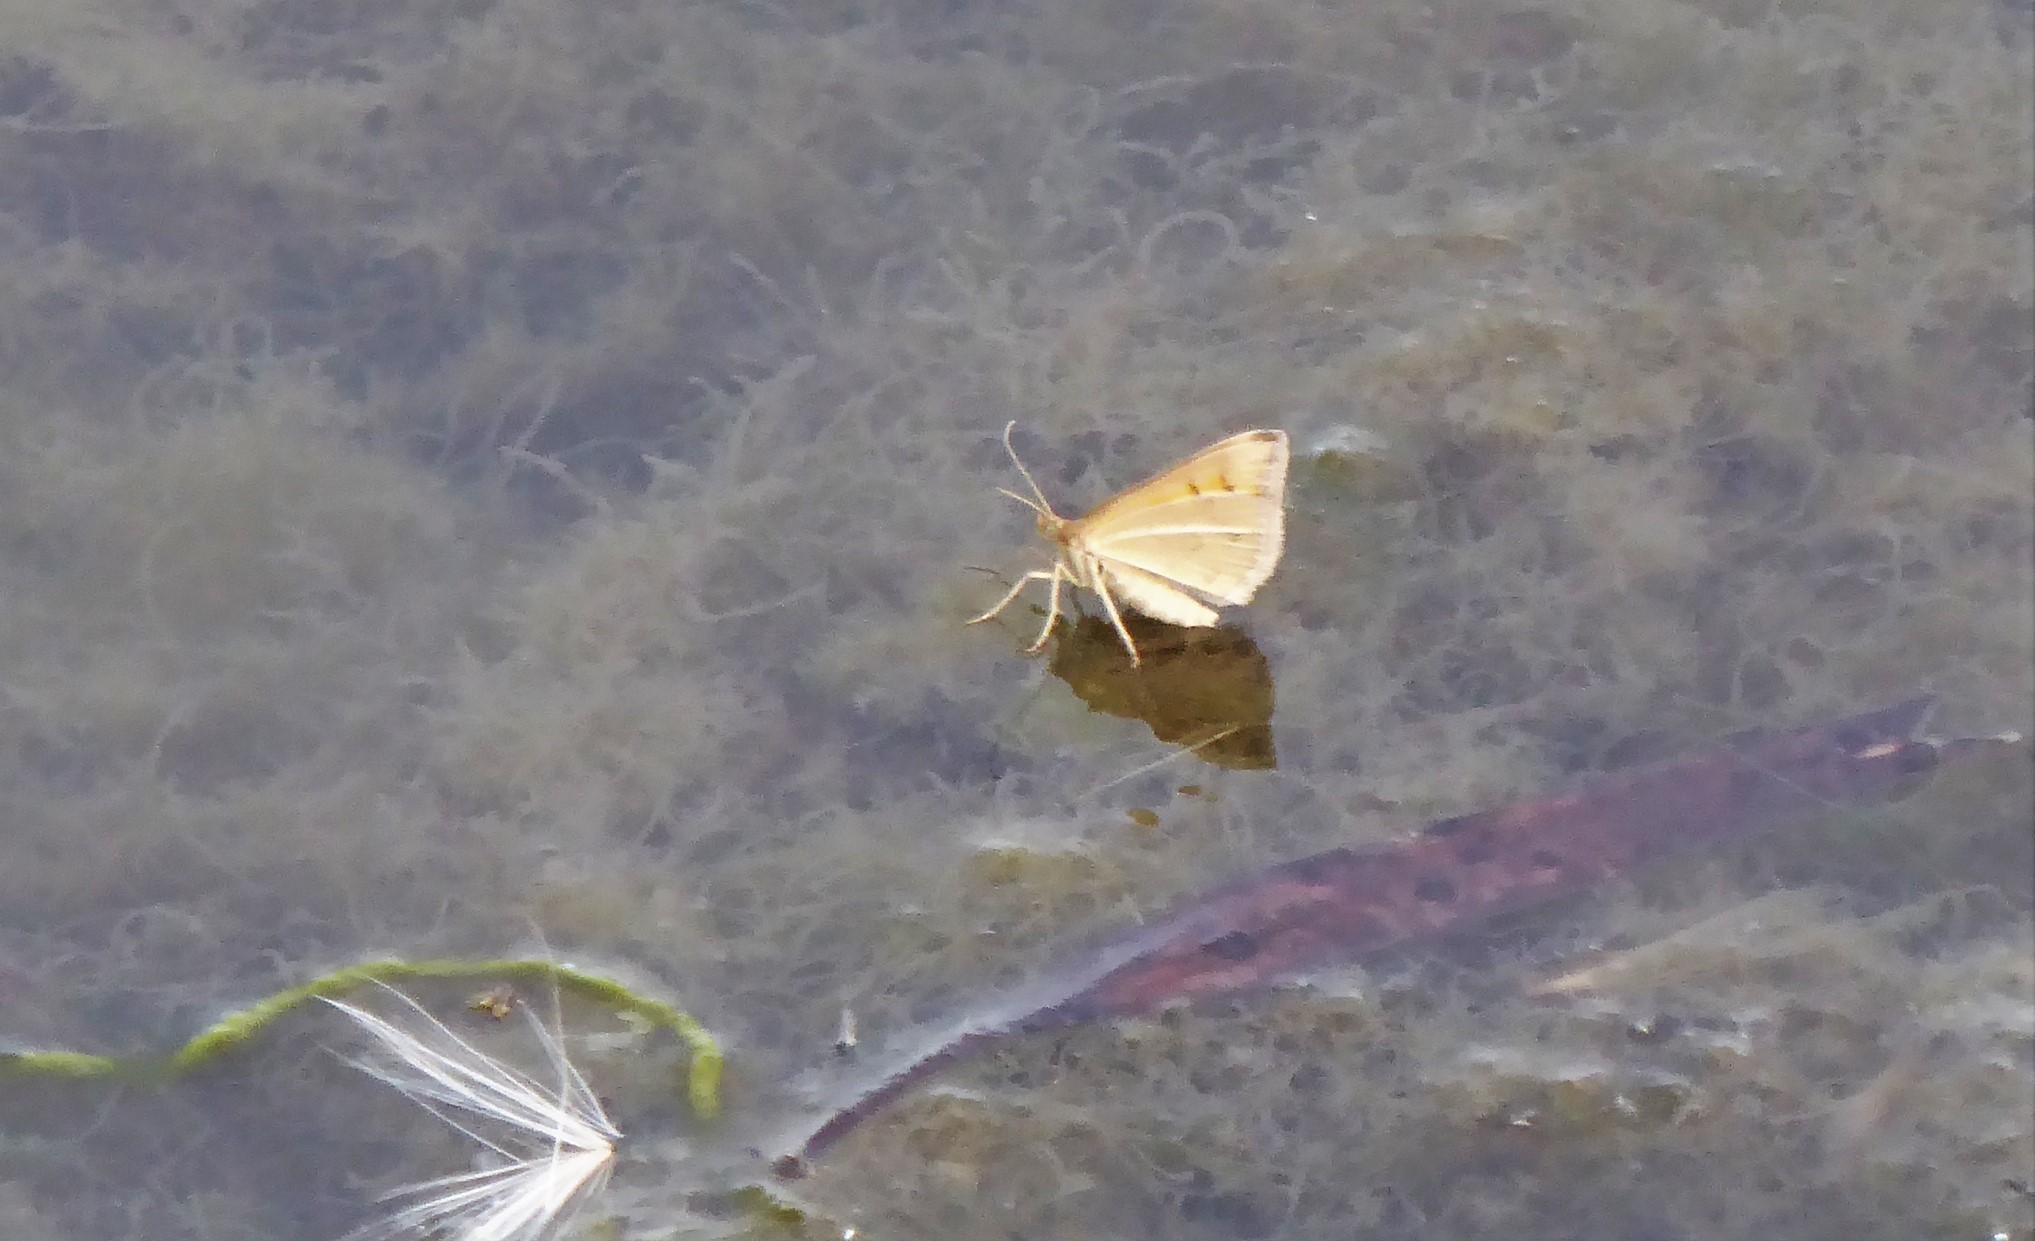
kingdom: Animalia
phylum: Arthropoda
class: Insecta
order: Lepidoptera
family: Geometridae
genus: Asaphodes
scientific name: Asaphodes abrogata
